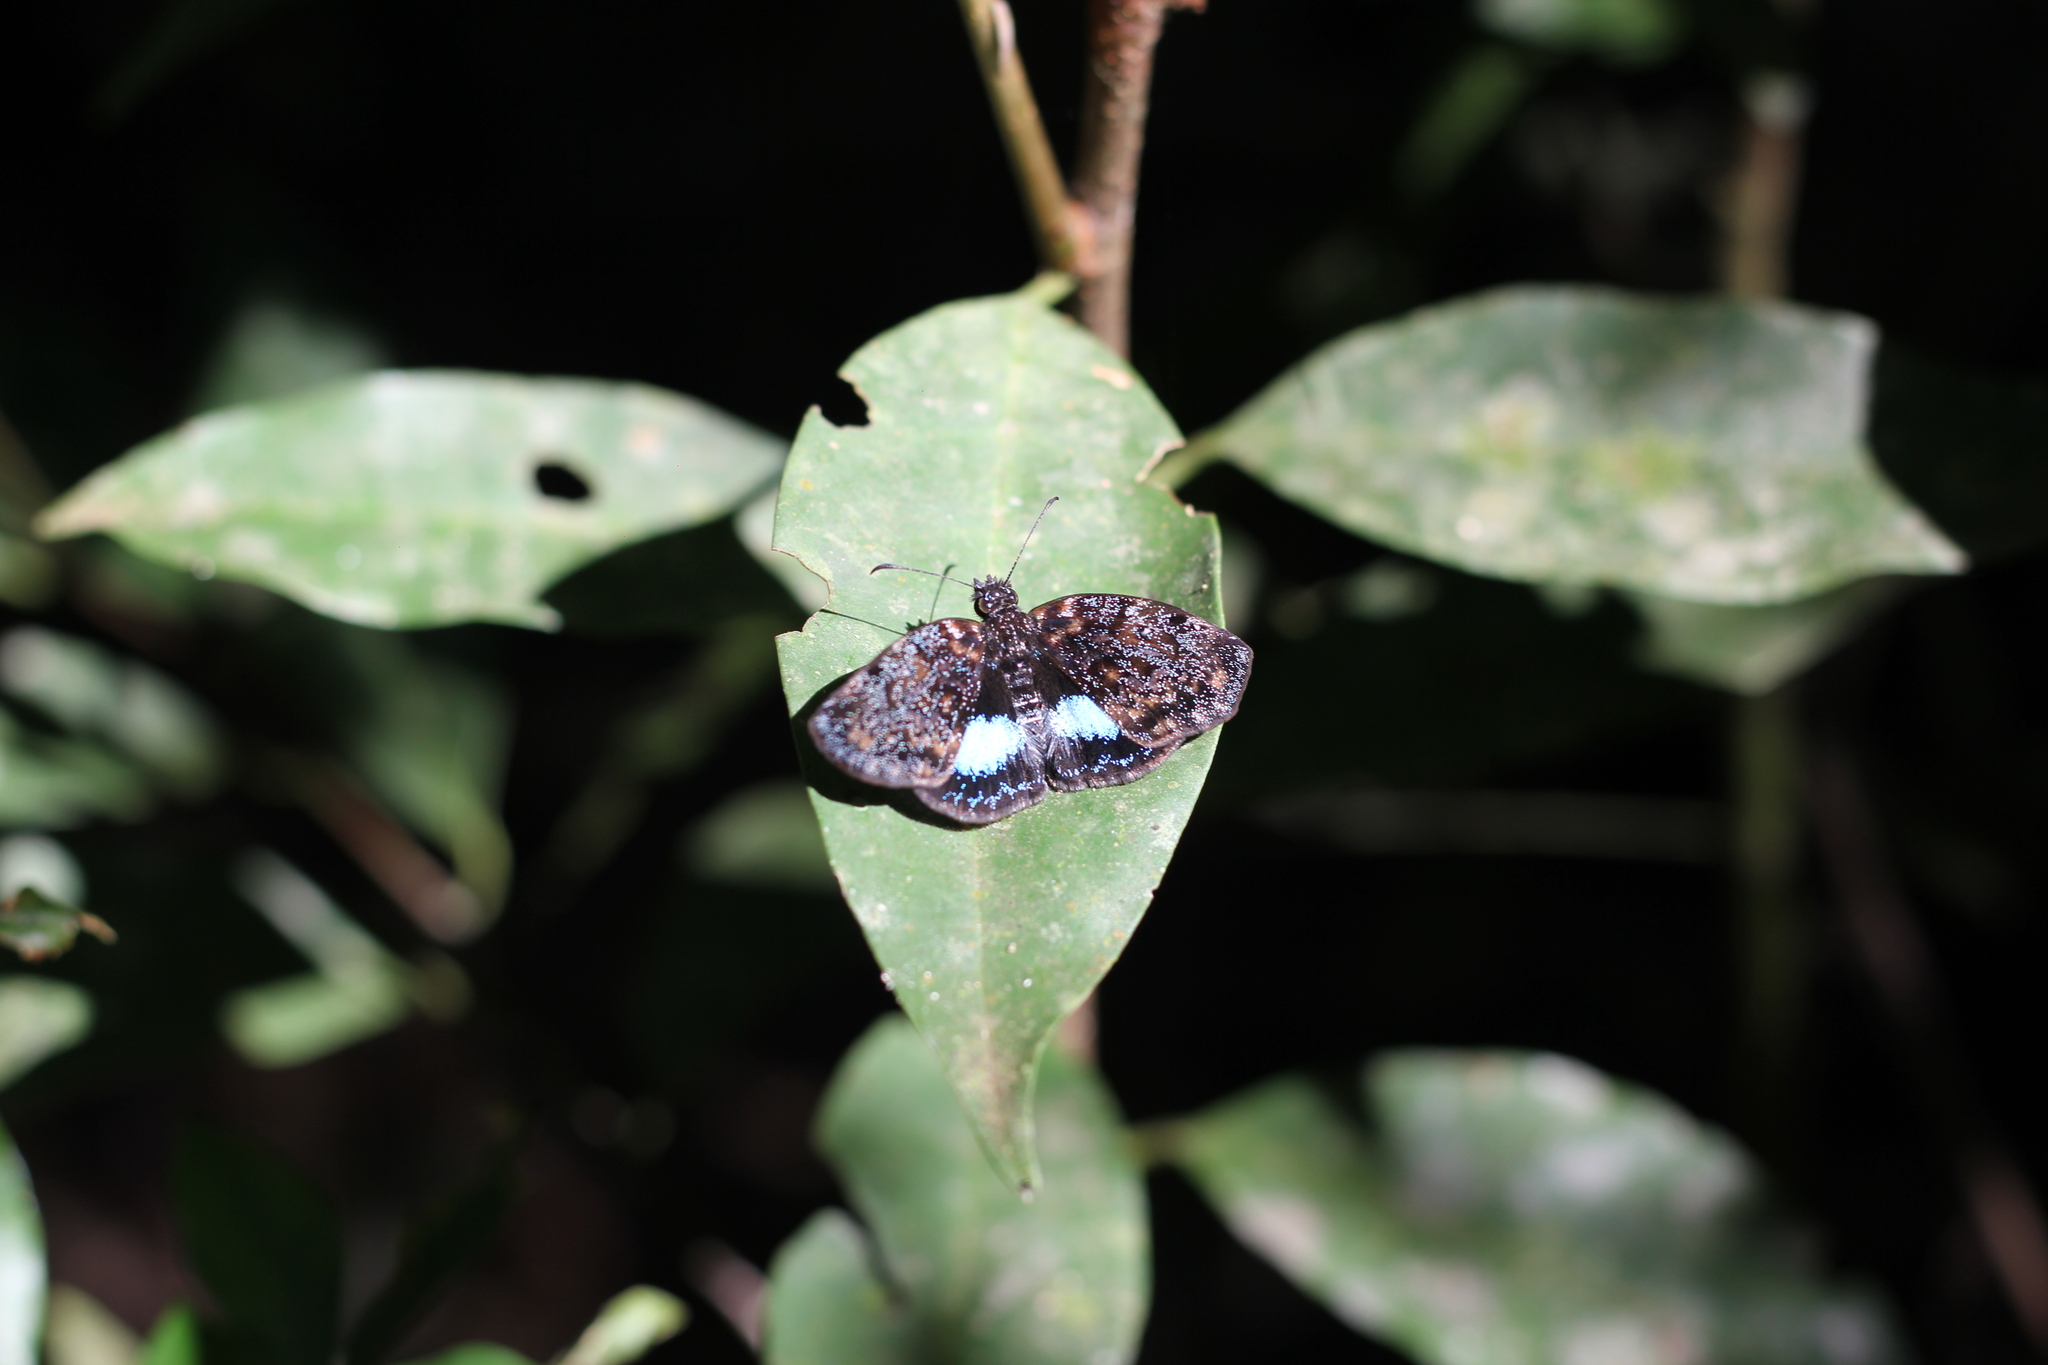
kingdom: Animalia
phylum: Arthropoda
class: Insecta
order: Lepidoptera
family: Hesperiidae
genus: Sostrata
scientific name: Sostrata
